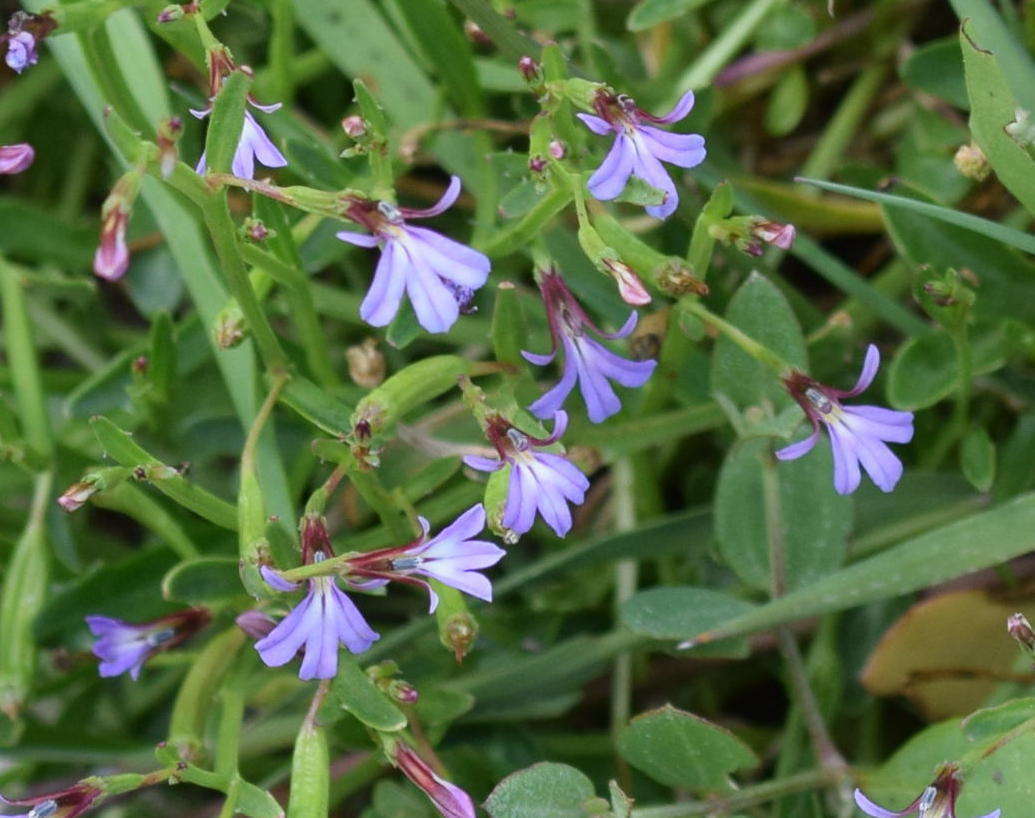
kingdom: Plantae
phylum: Tracheophyta
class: Magnoliopsida
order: Asterales
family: Campanulaceae
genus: Lobelia
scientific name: Lobelia anceps
